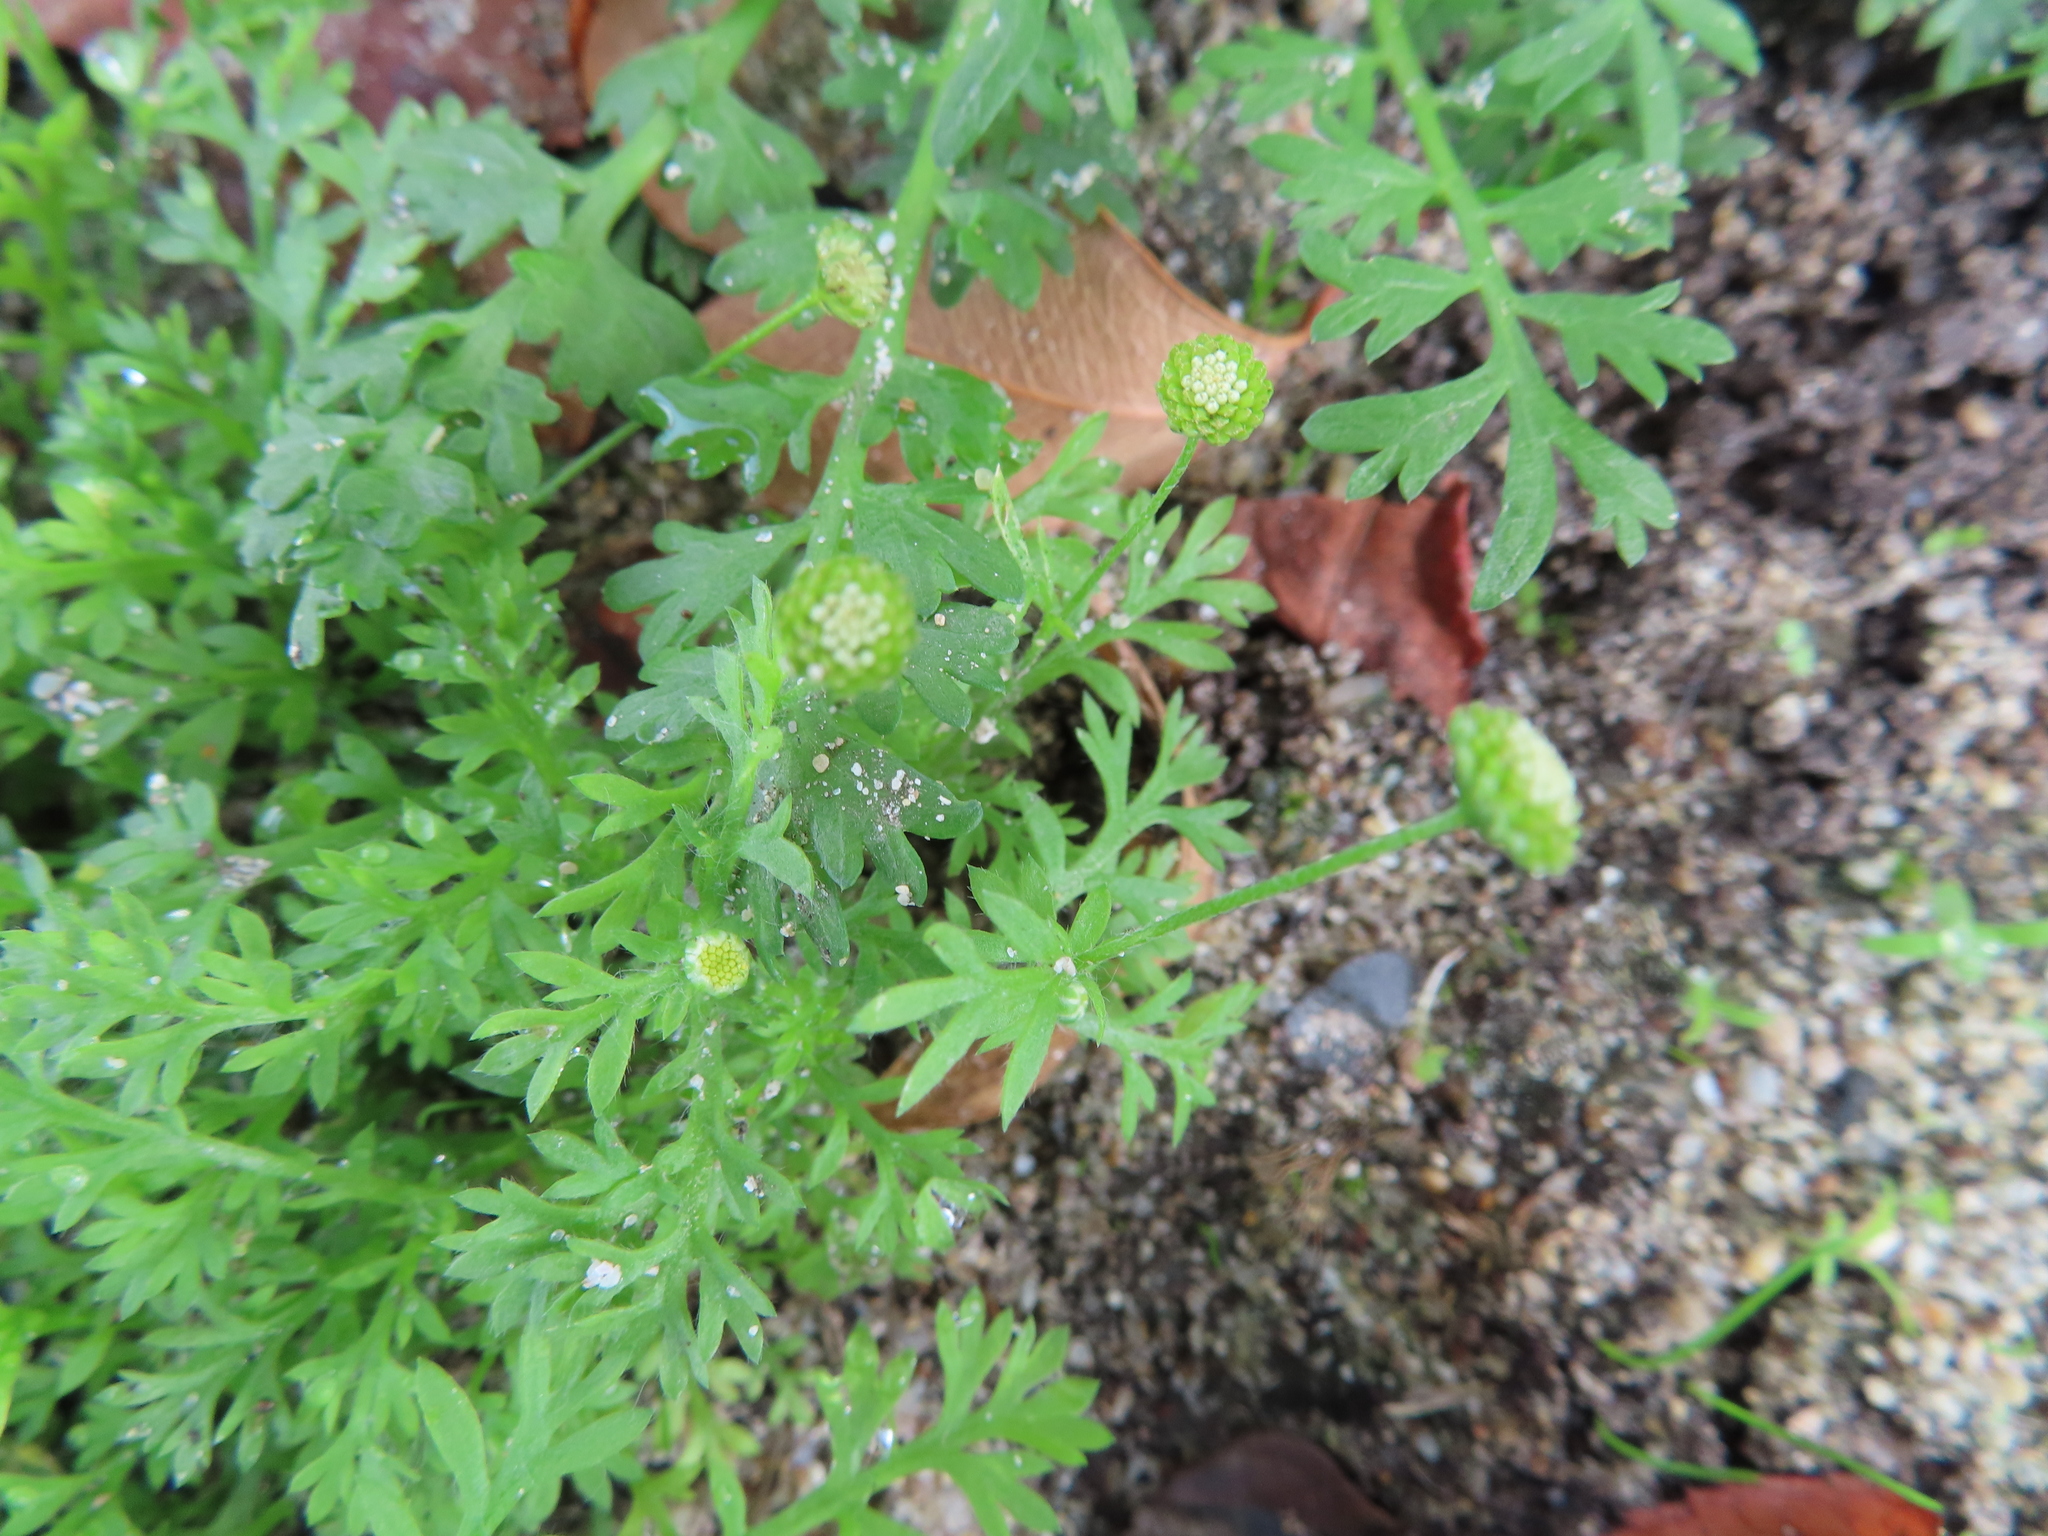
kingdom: Plantae
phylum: Tracheophyta
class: Magnoliopsida
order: Asterales
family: Asteraceae
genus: Cotula
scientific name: Cotula australis
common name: Australian waterbuttons
